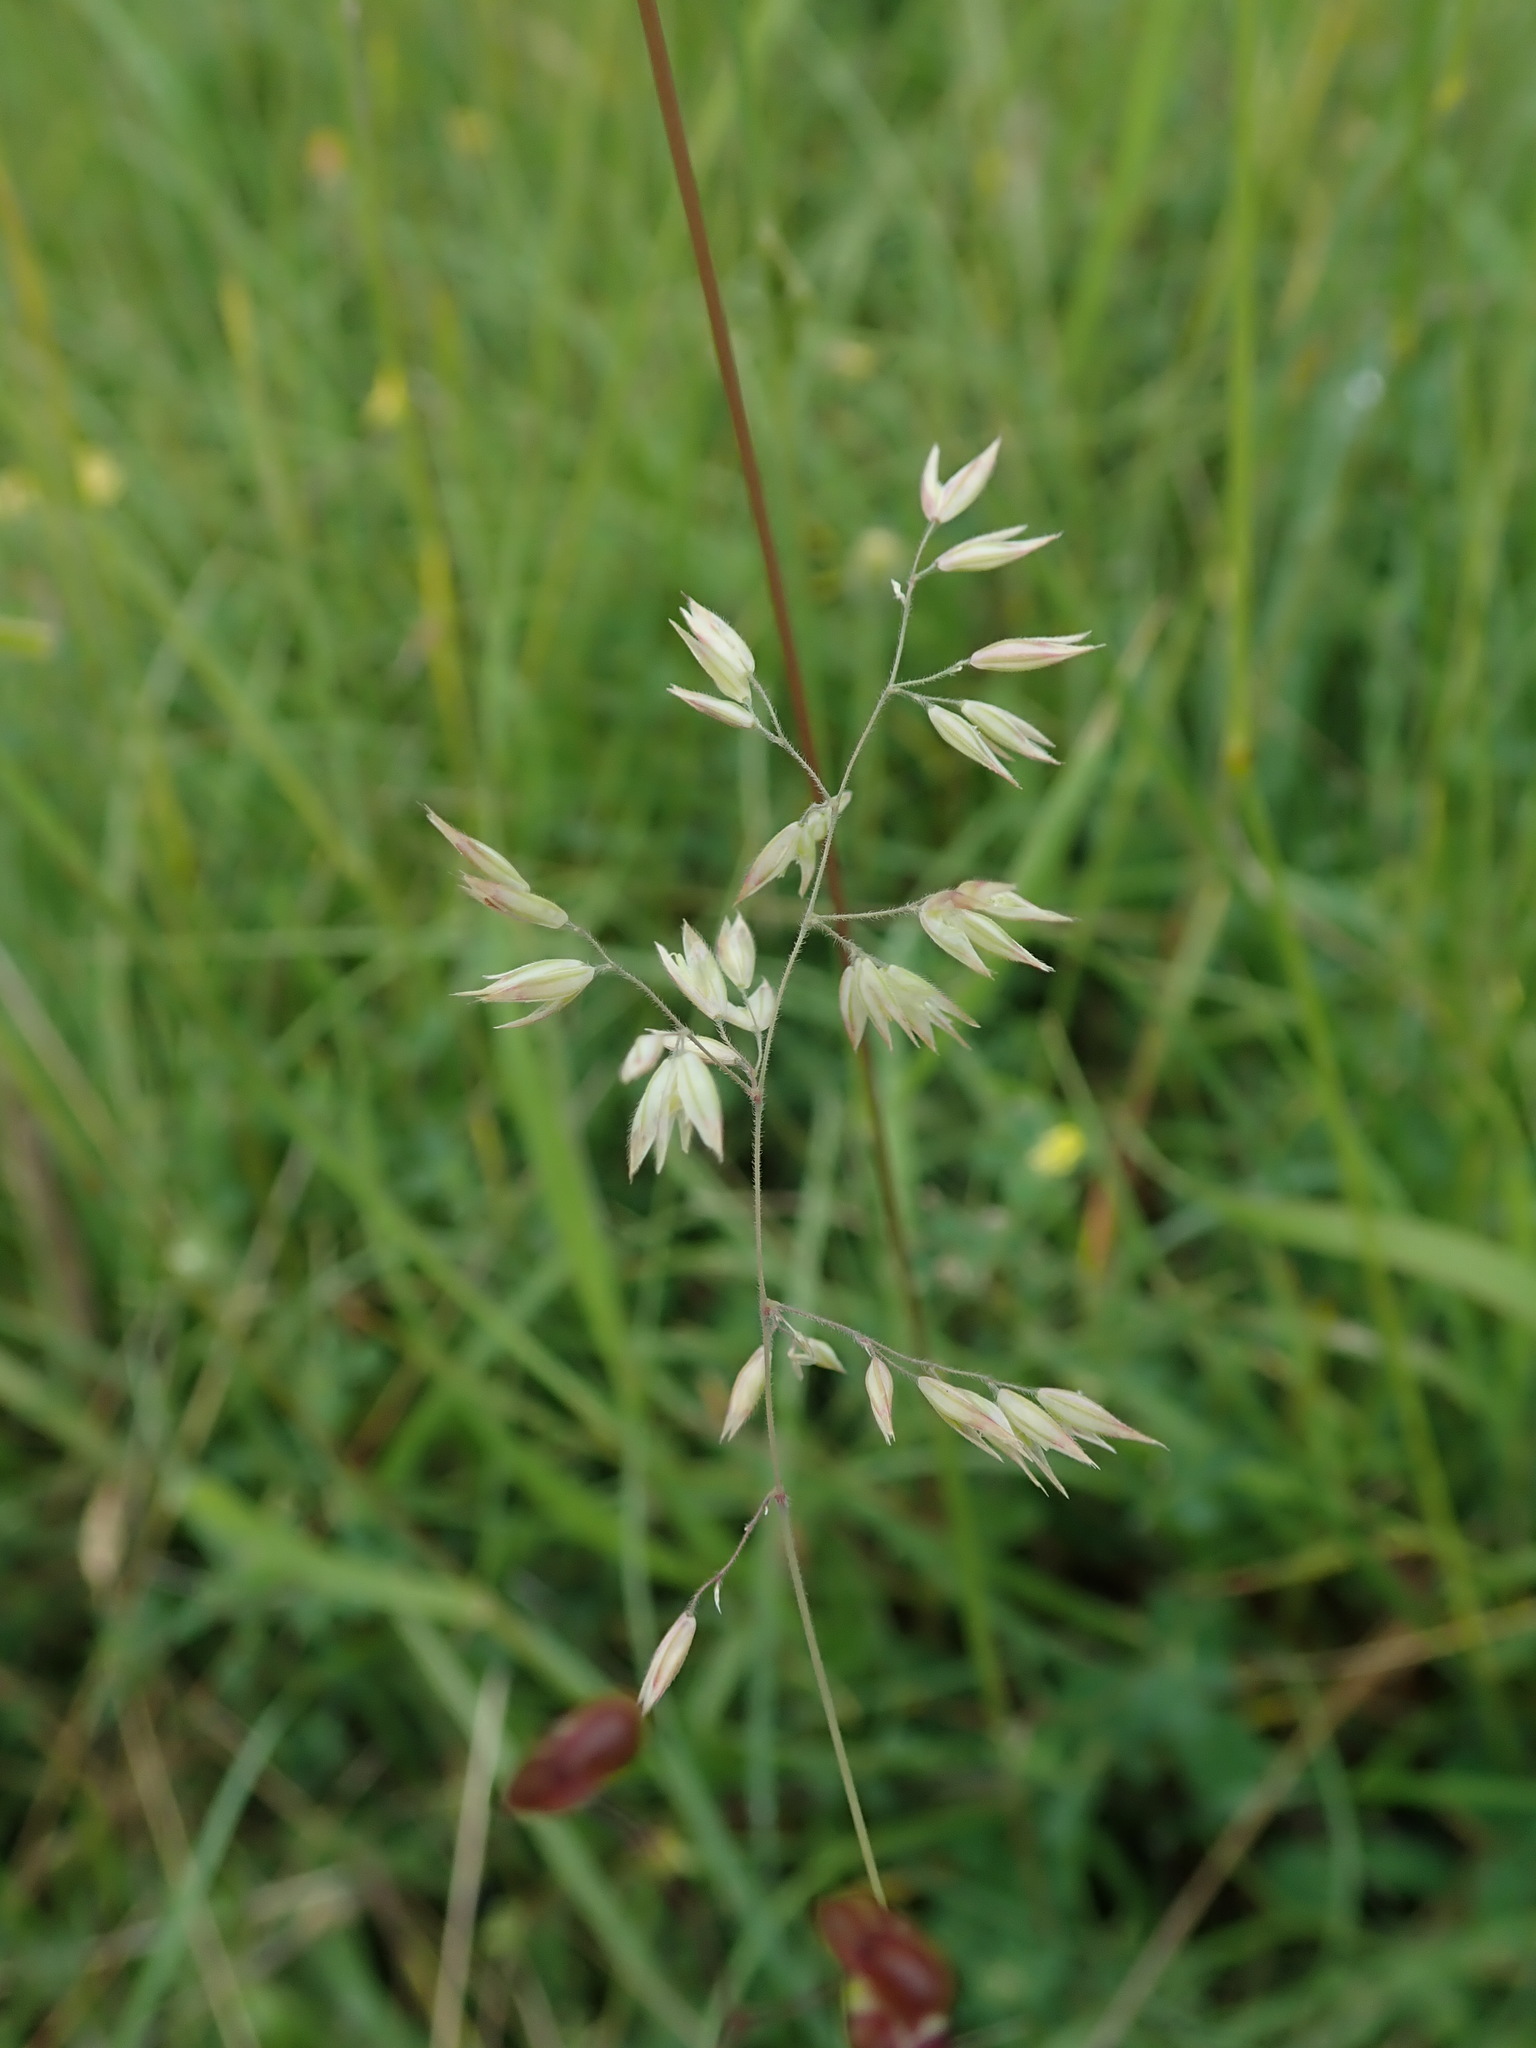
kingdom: Plantae
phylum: Tracheophyta
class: Liliopsida
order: Poales
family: Poaceae
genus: Holcus
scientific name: Holcus lanatus
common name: Yorkshire-fog
